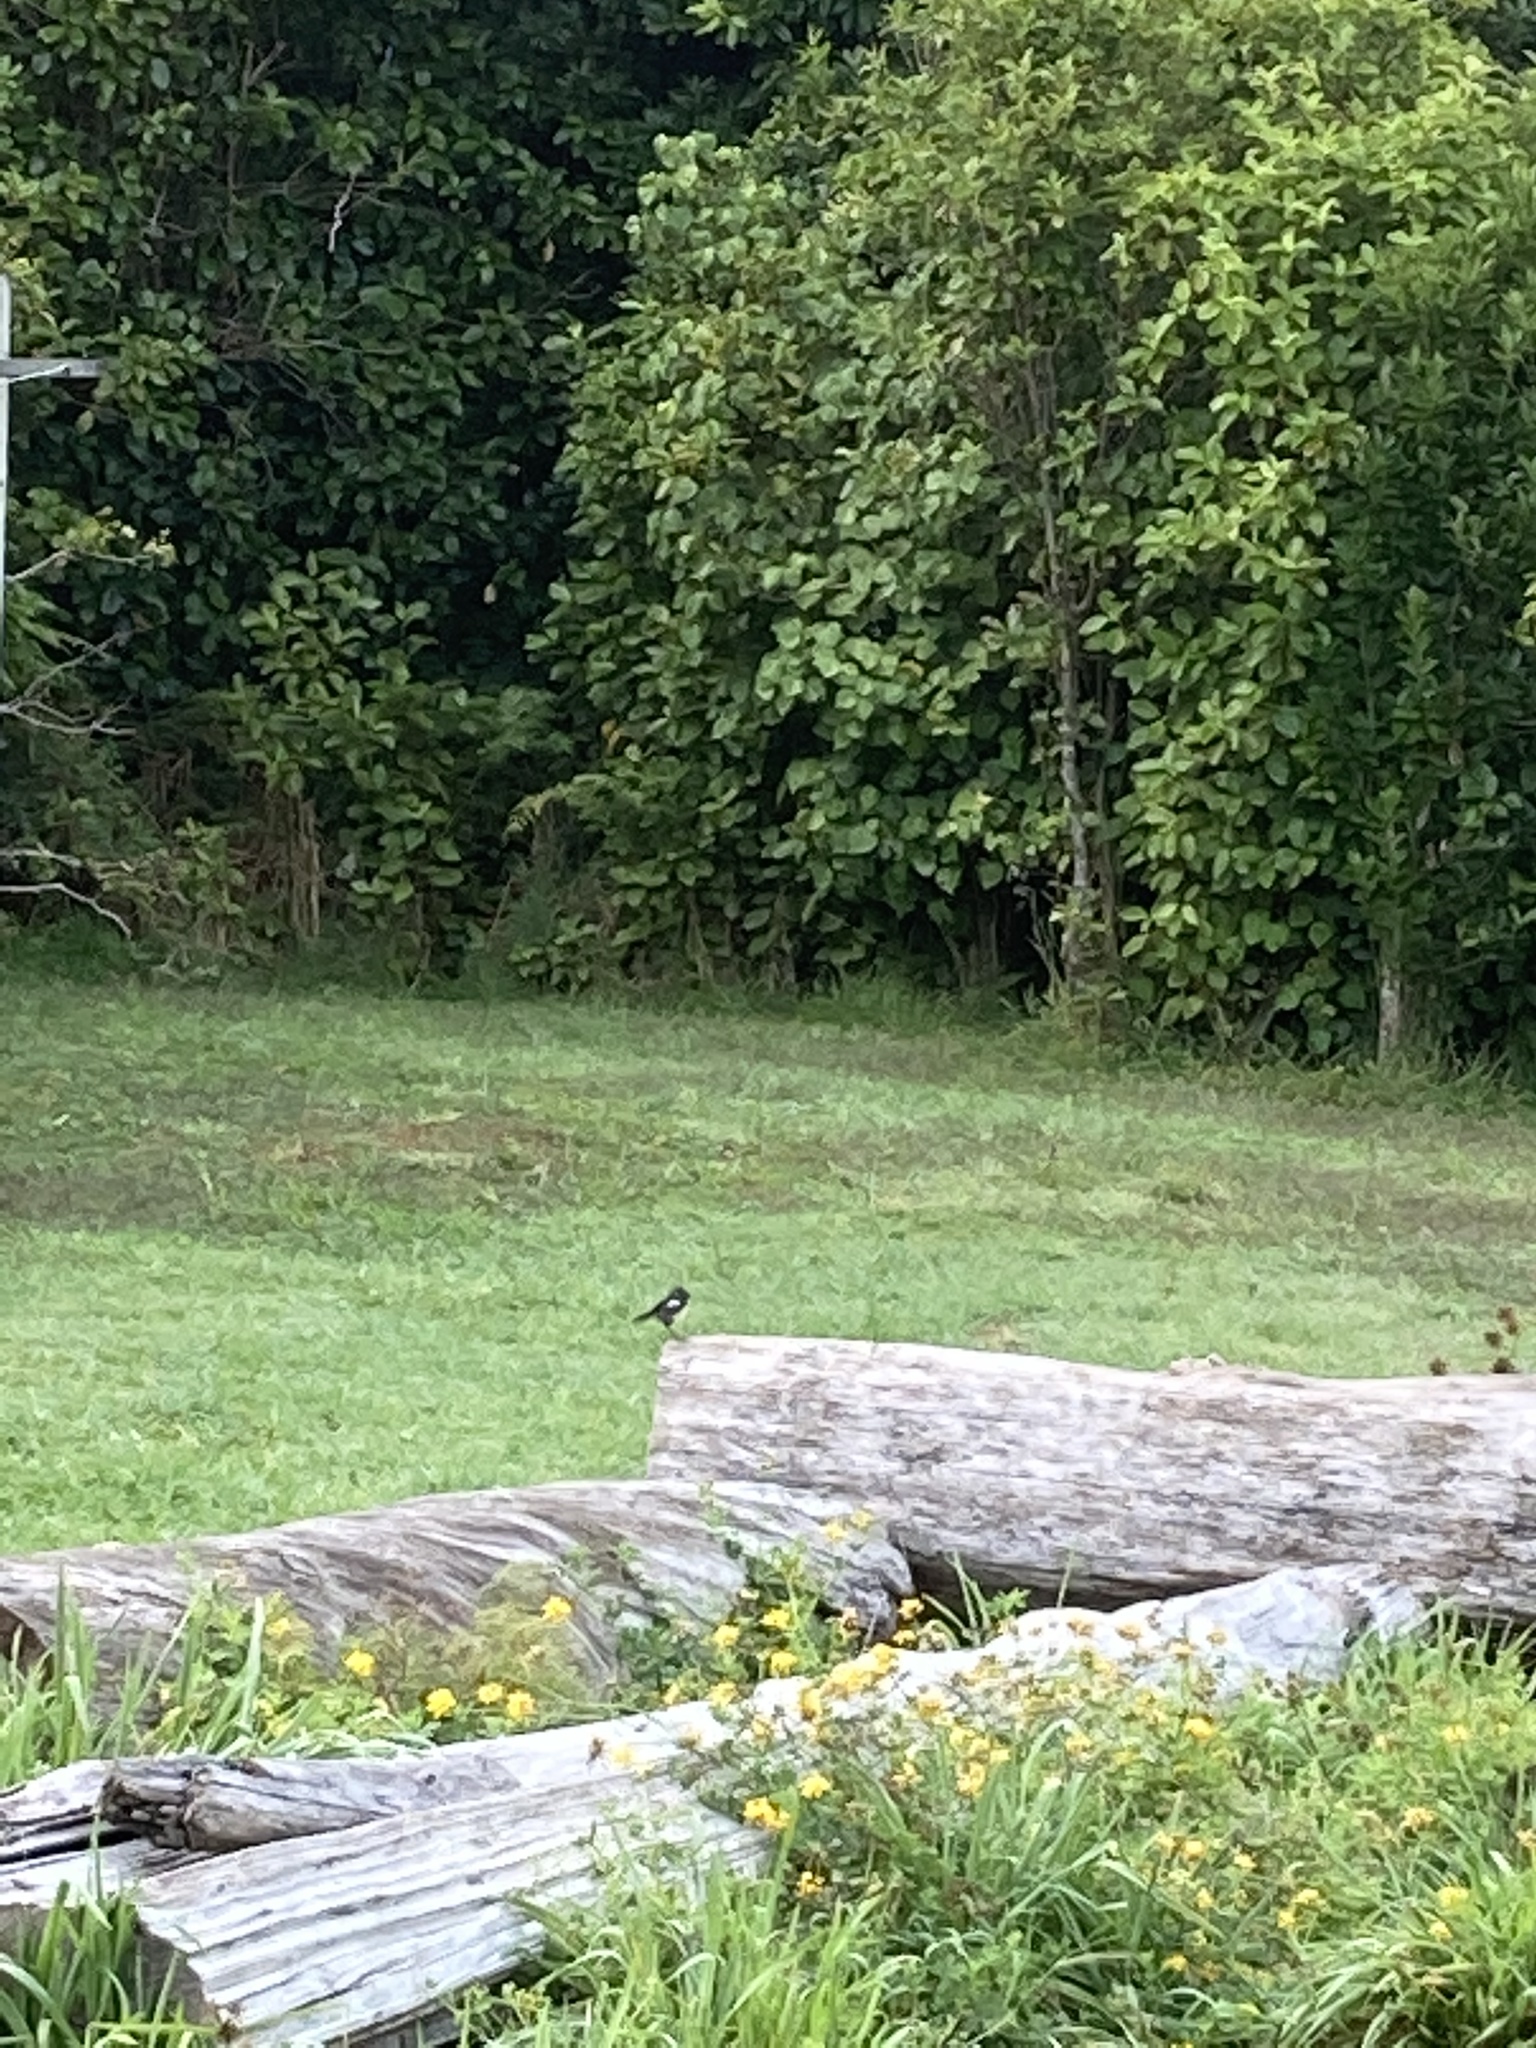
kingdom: Animalia
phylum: Chordata
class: Aves
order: Passeriformes
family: Petroicidae
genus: Petroica
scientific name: Petroica macrocephala
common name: Tomtit
